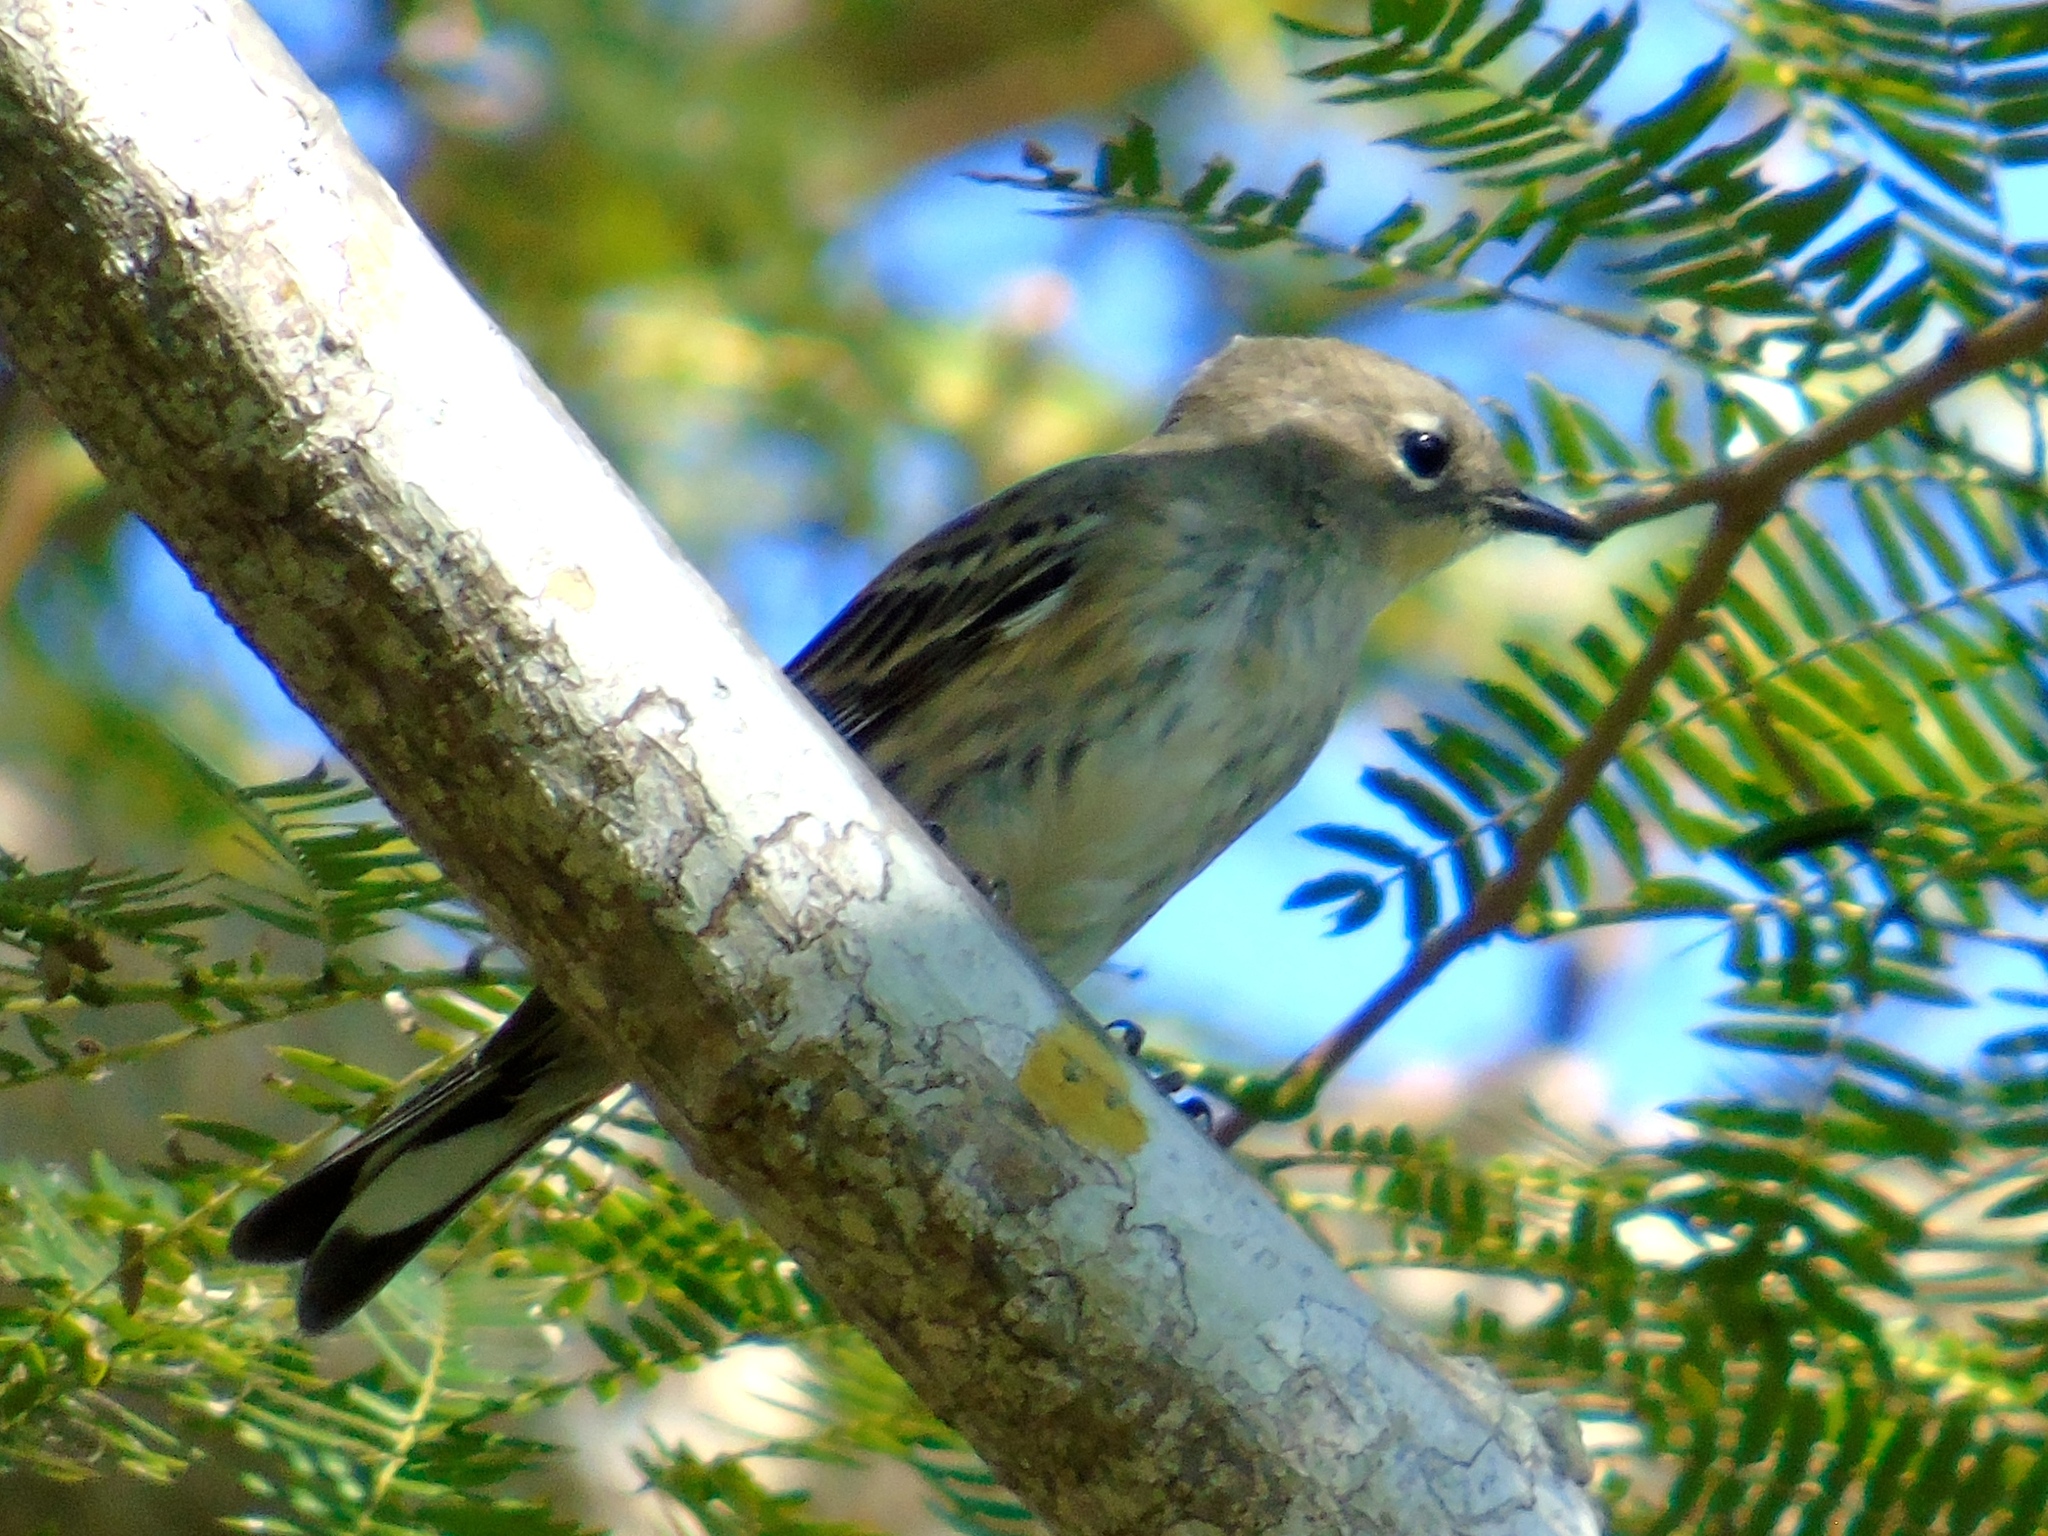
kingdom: Animalia
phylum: Chordata
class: Aves
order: Passeriformes
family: Parulidae
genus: Setophaga
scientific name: Setophaga coronata
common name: Myrtle warbler
